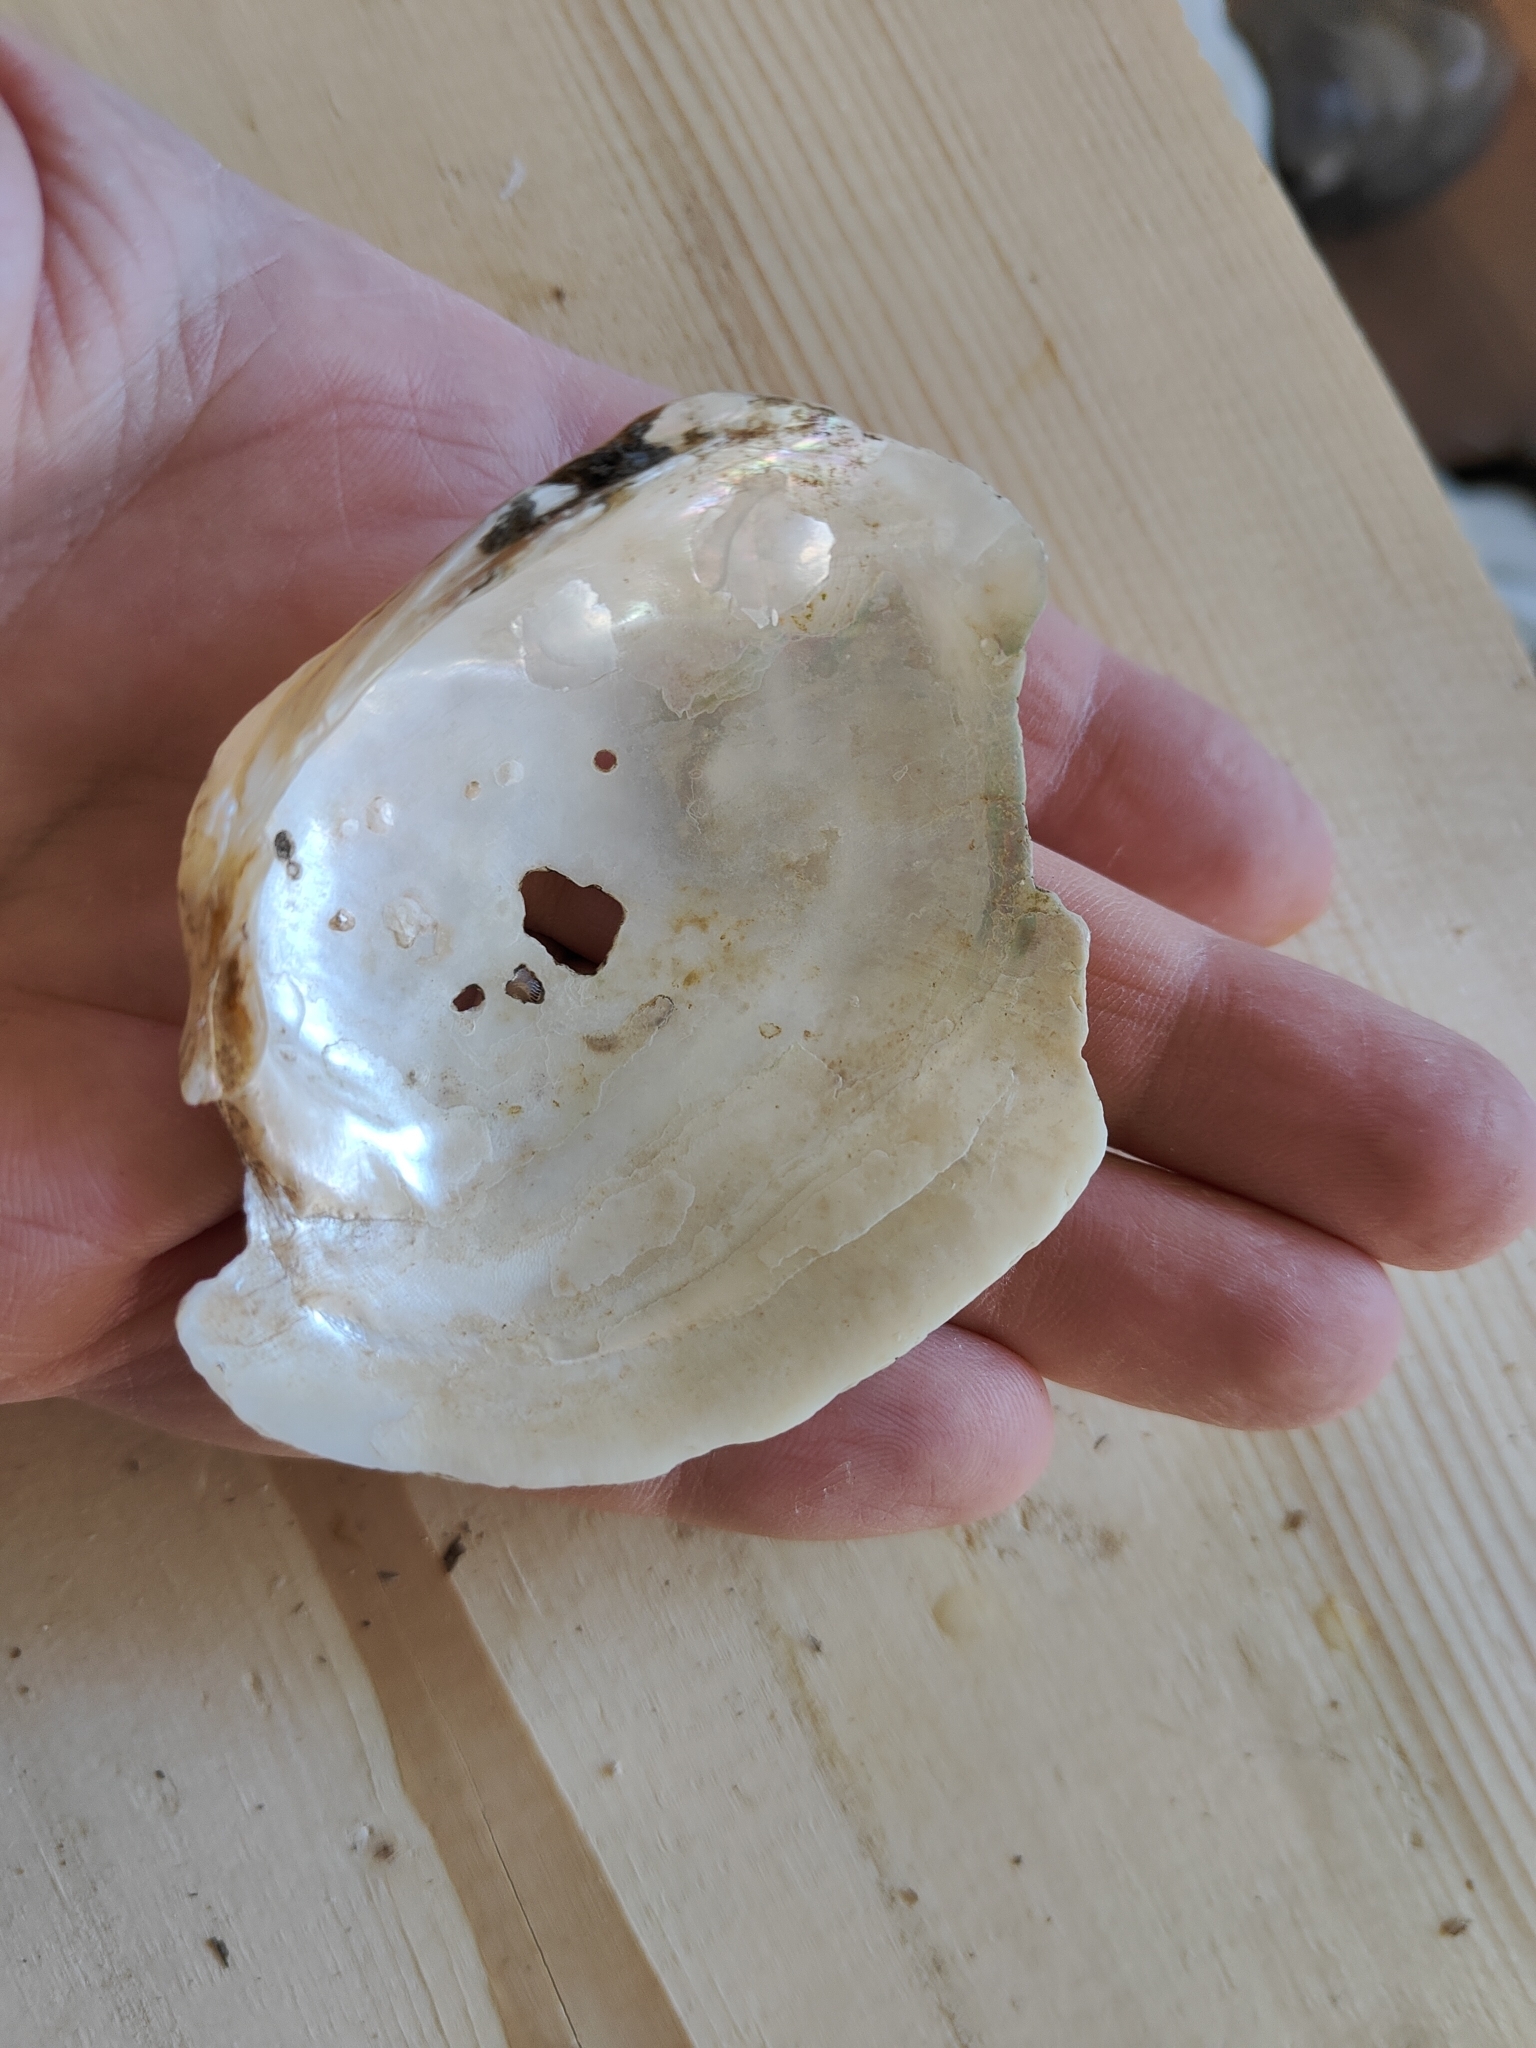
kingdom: Animalia
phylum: Mollusca
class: Bivalvia
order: Unionida
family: Unionidae
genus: Lampsilis
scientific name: Lampsilis cardium
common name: Plain pocketbook
